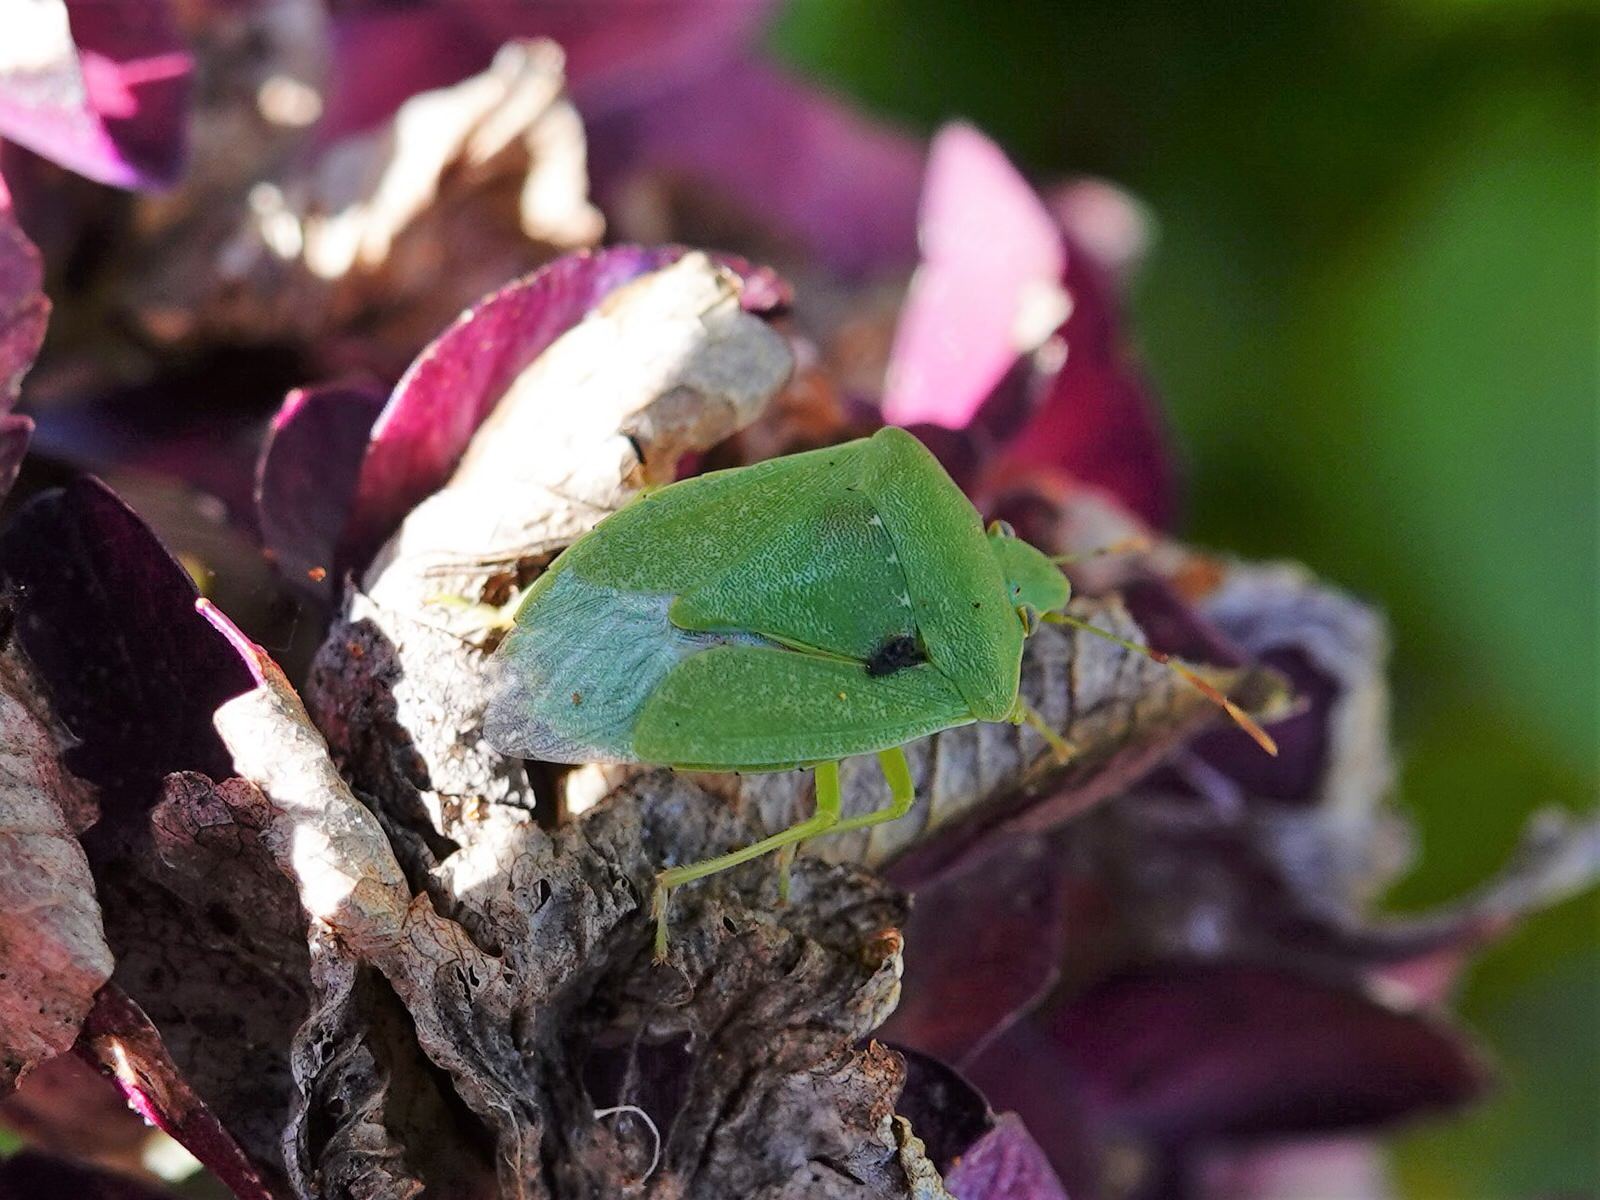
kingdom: Animalia
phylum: Arthropoda
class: Insecta
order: Hemiptera
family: Pentatomidae
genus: Nezara
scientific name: Nezara viridula
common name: Southern green stink bug
